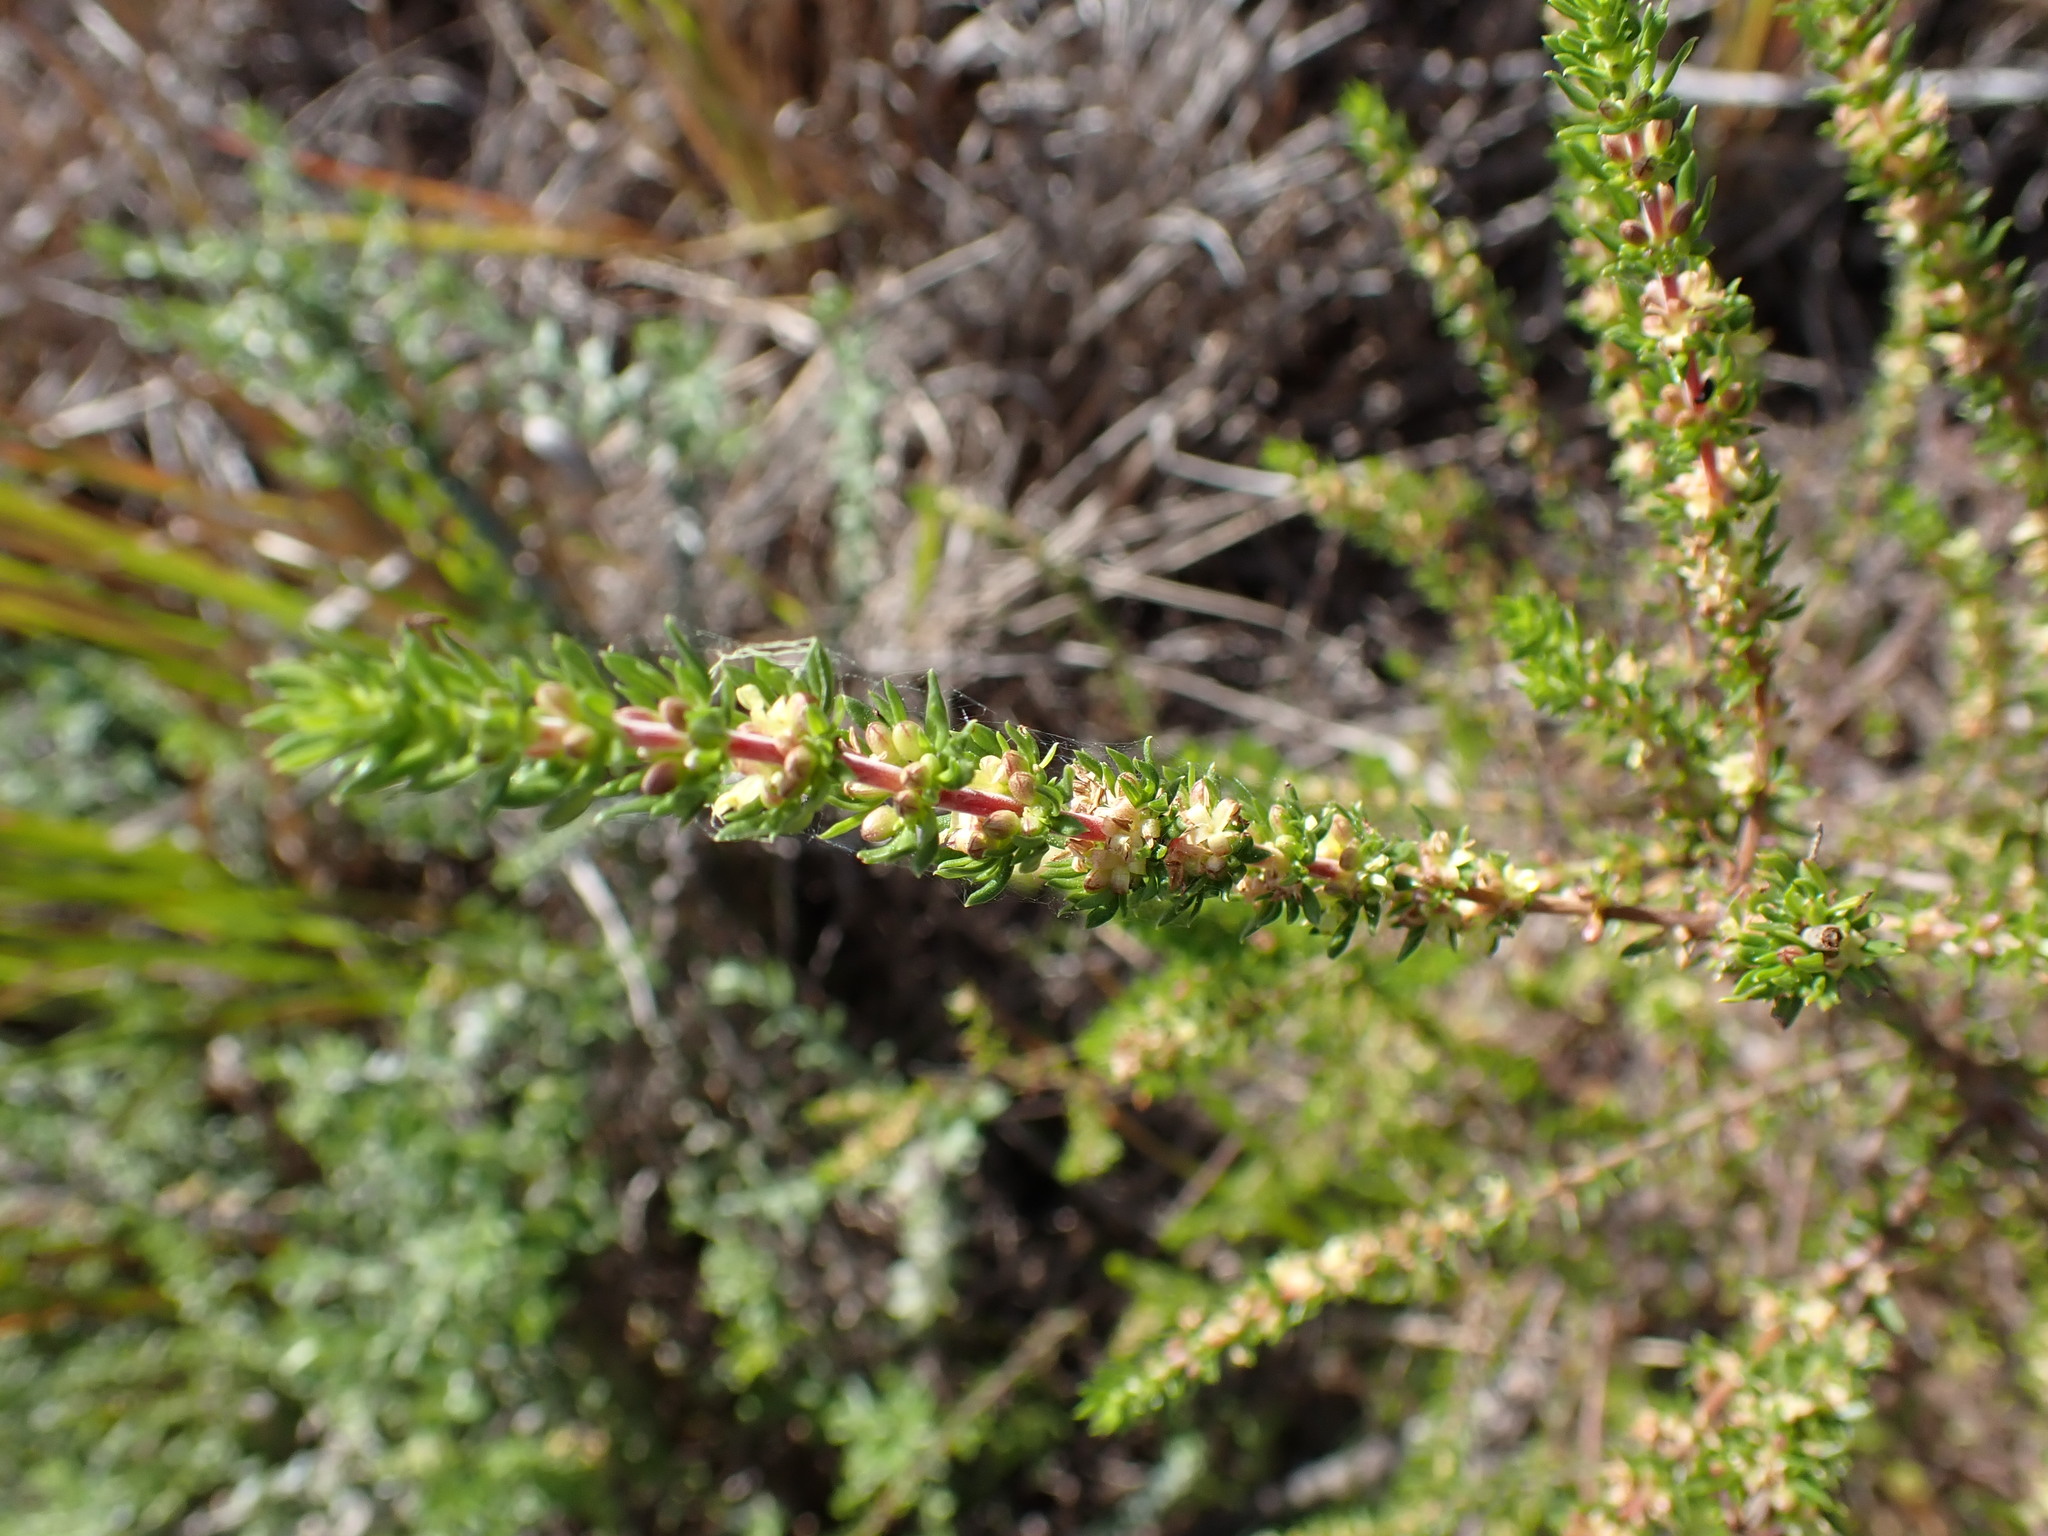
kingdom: Plantae
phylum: Tracheophyta
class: Magnoliopsida
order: Gentianales
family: Rubiaceae
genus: Anthospermum
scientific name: Anthospermum aethiopicum
